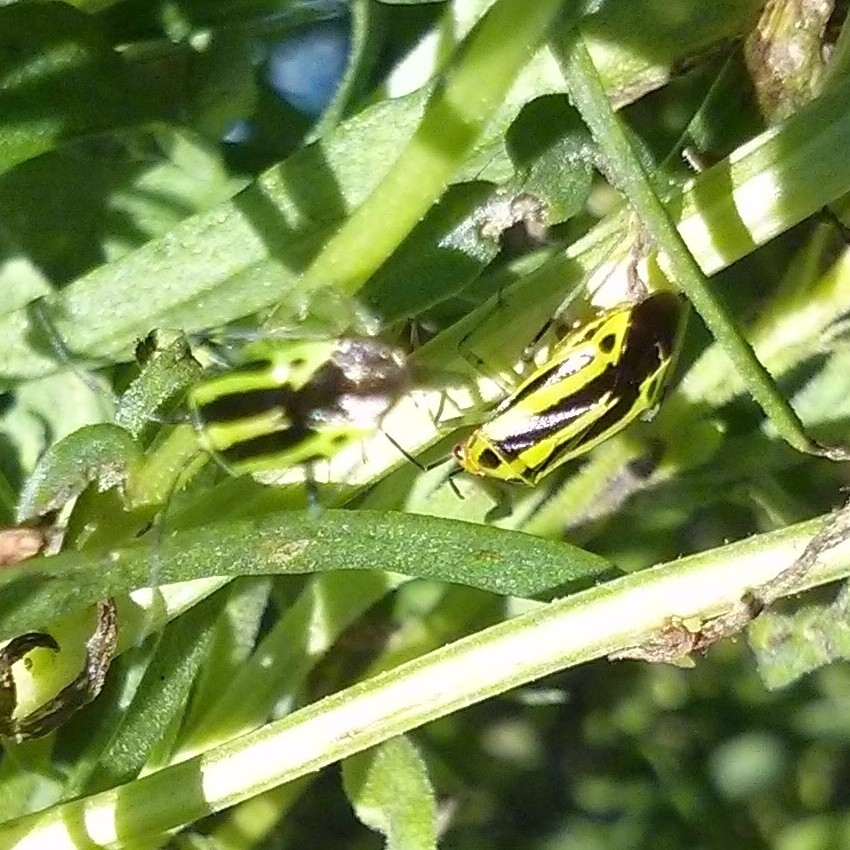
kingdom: Animalia
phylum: Arthropoda
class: Insecta
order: Hemiptera
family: Miridae
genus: Poecilocapsus
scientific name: Poecilocapsus lineatus
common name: Four-lined plant bug
